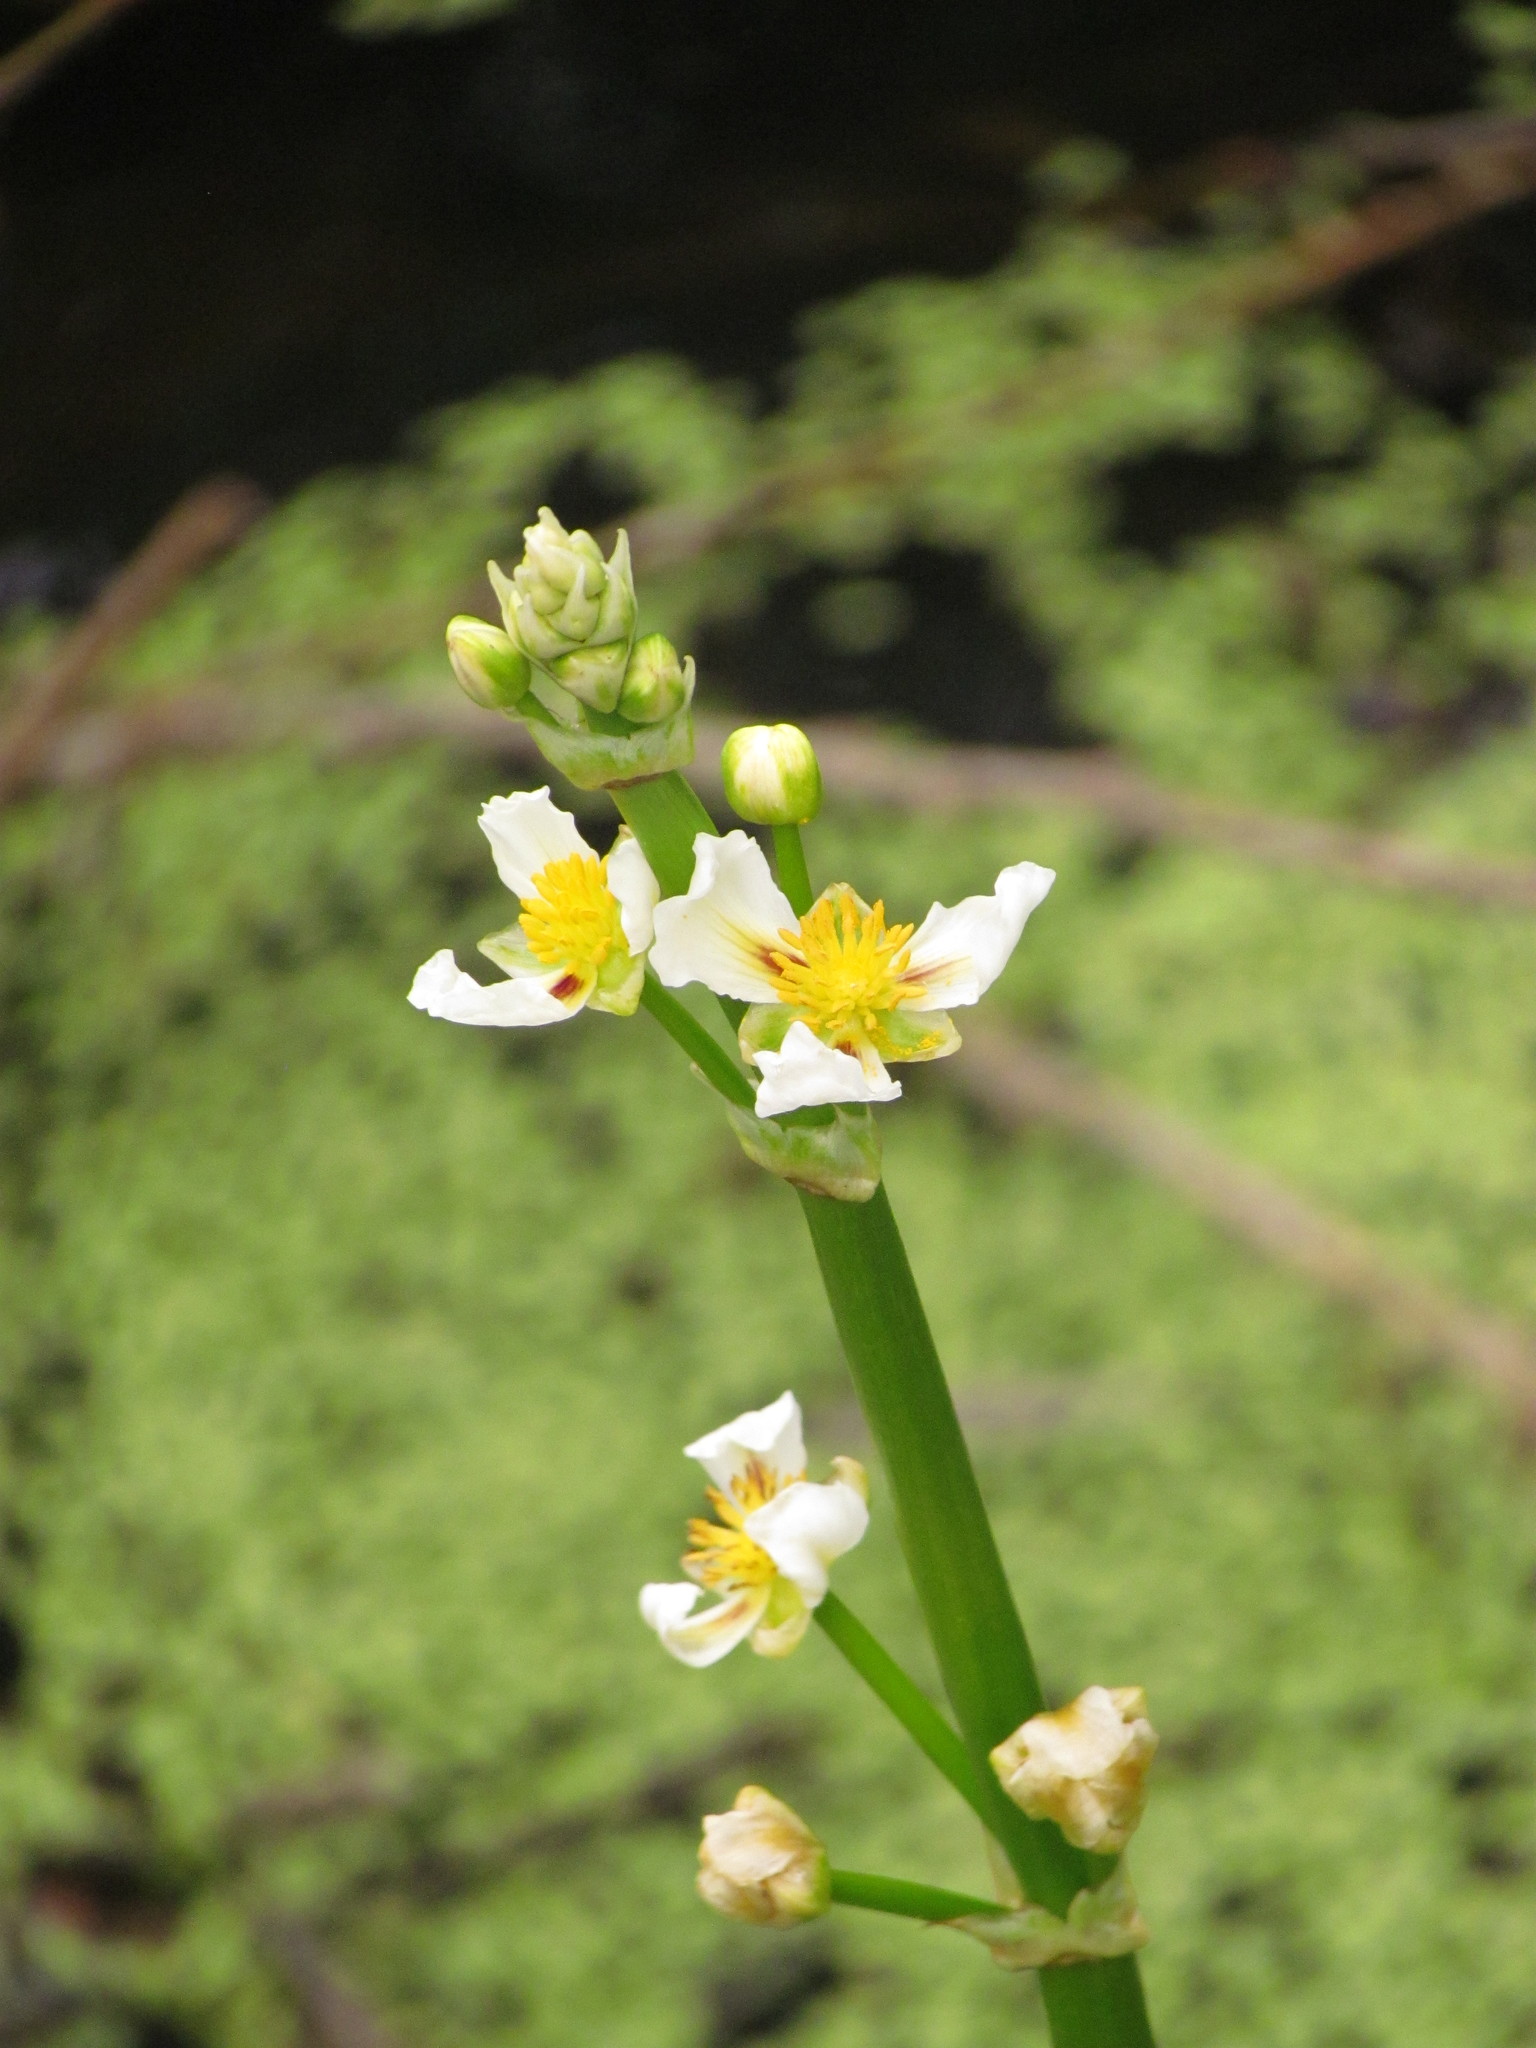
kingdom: Plantae
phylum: Tracheophyta
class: Liliopsida
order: Alismatales
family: Alismataceae
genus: Sagittaria
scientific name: Sagittaria montevidensis
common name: Giant arrowhead
